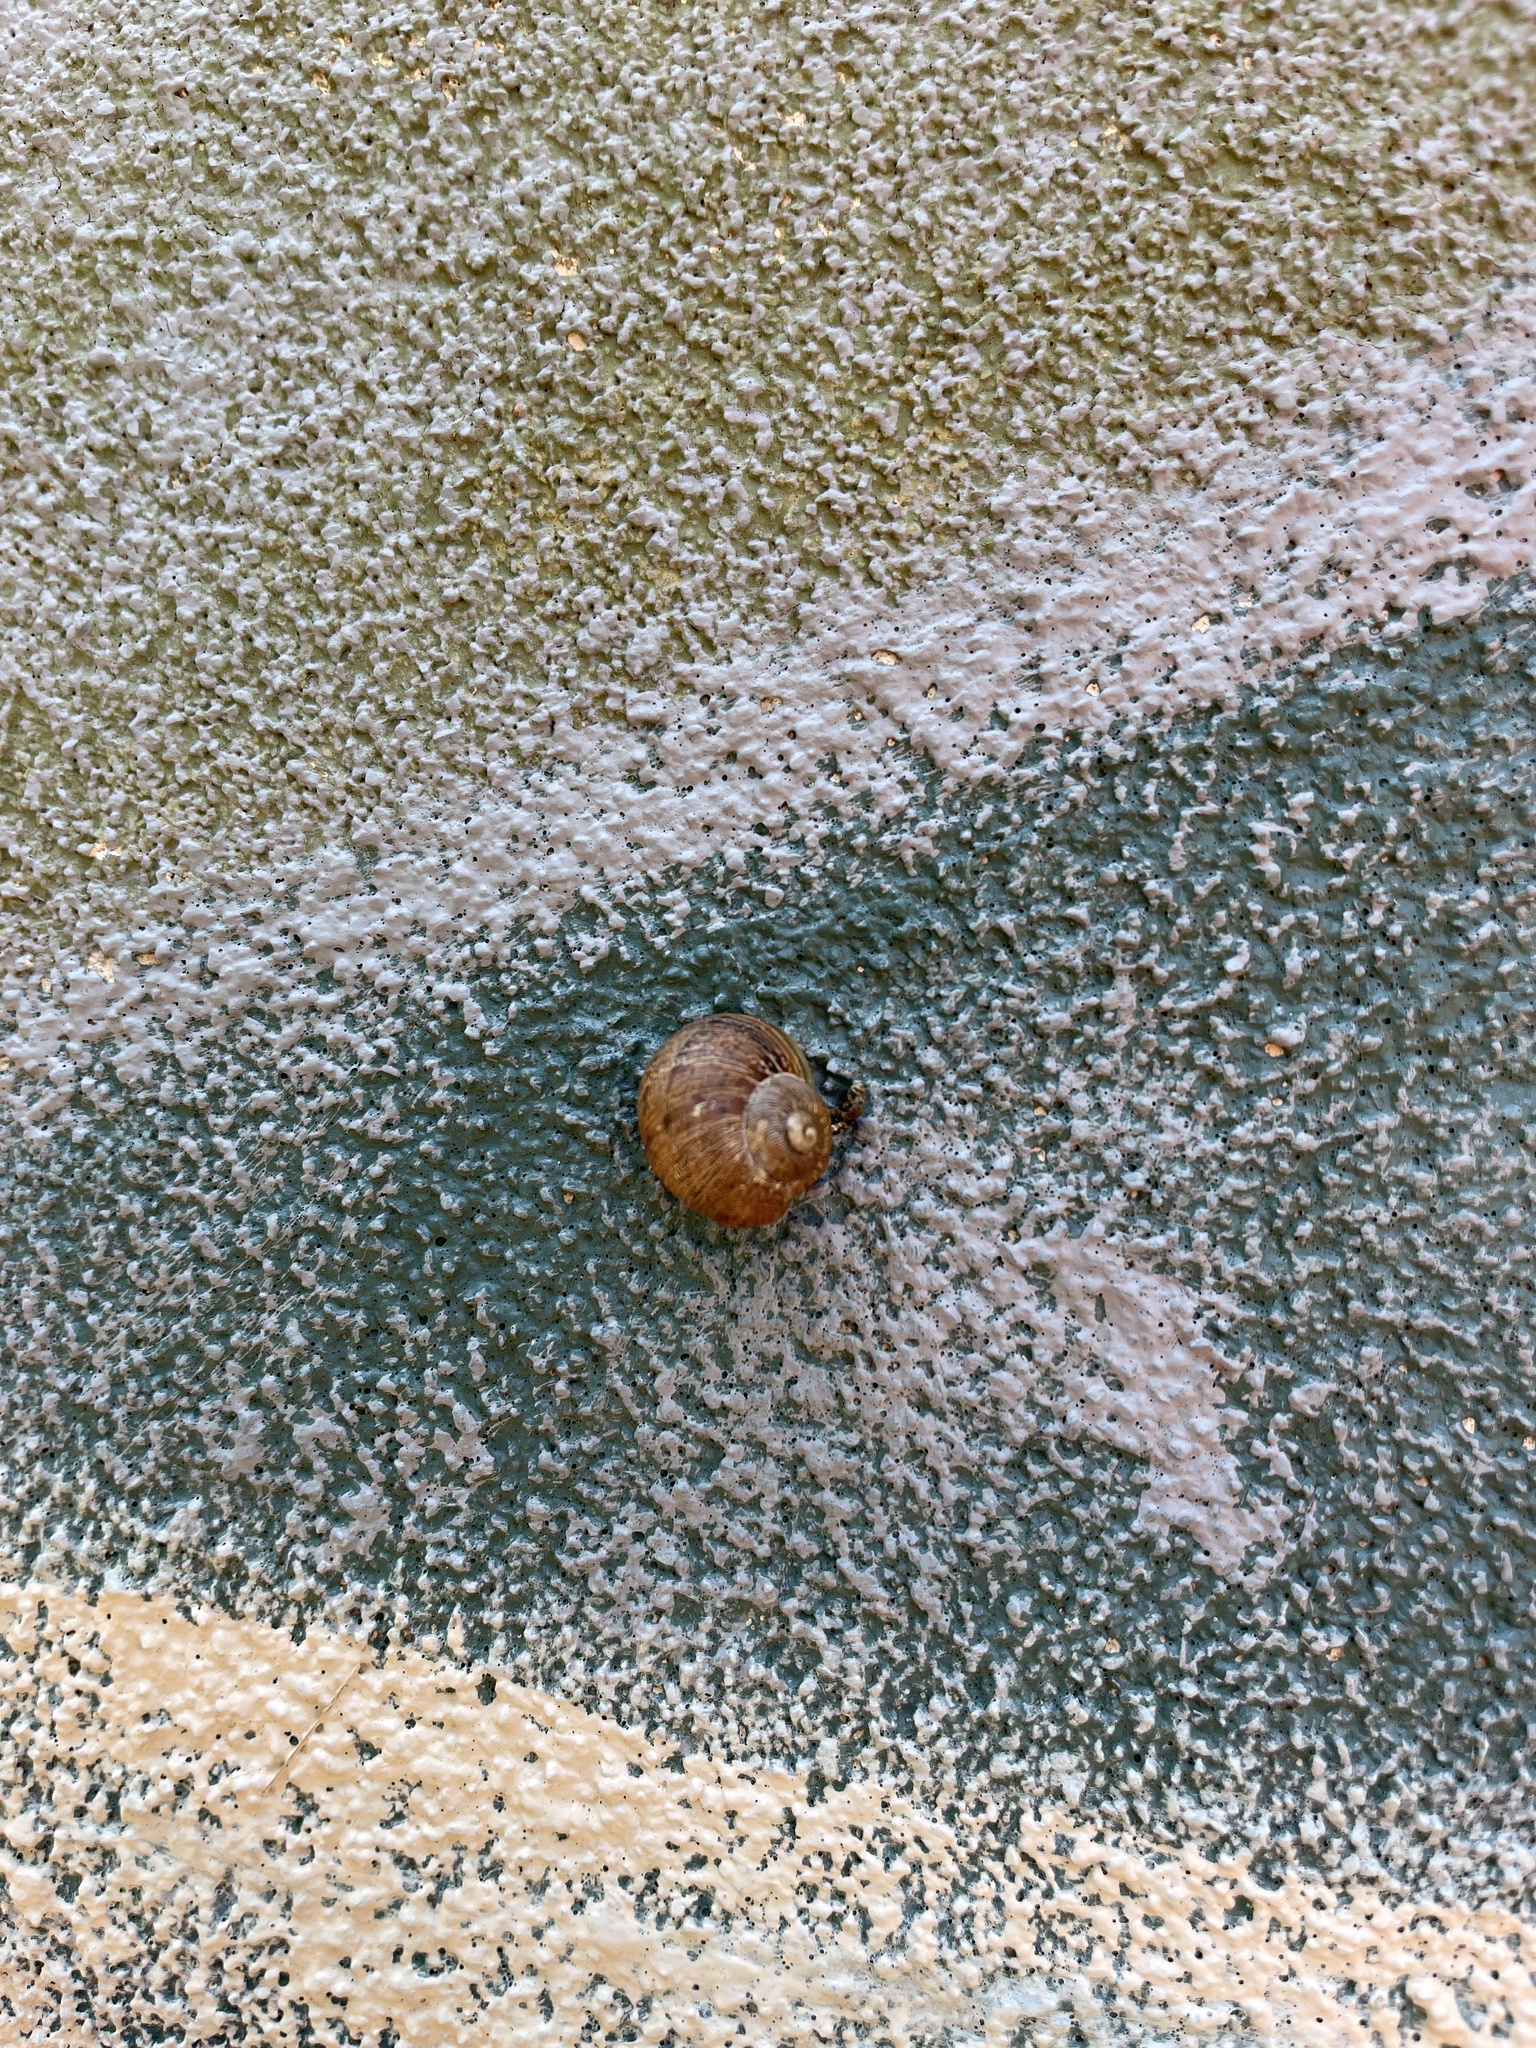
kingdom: Animalia
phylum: Mollusca
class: Gastropoda
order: Stylommatophora
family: Helicidae
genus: Cornu
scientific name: Cornu aspersum
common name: Brown garden snail
